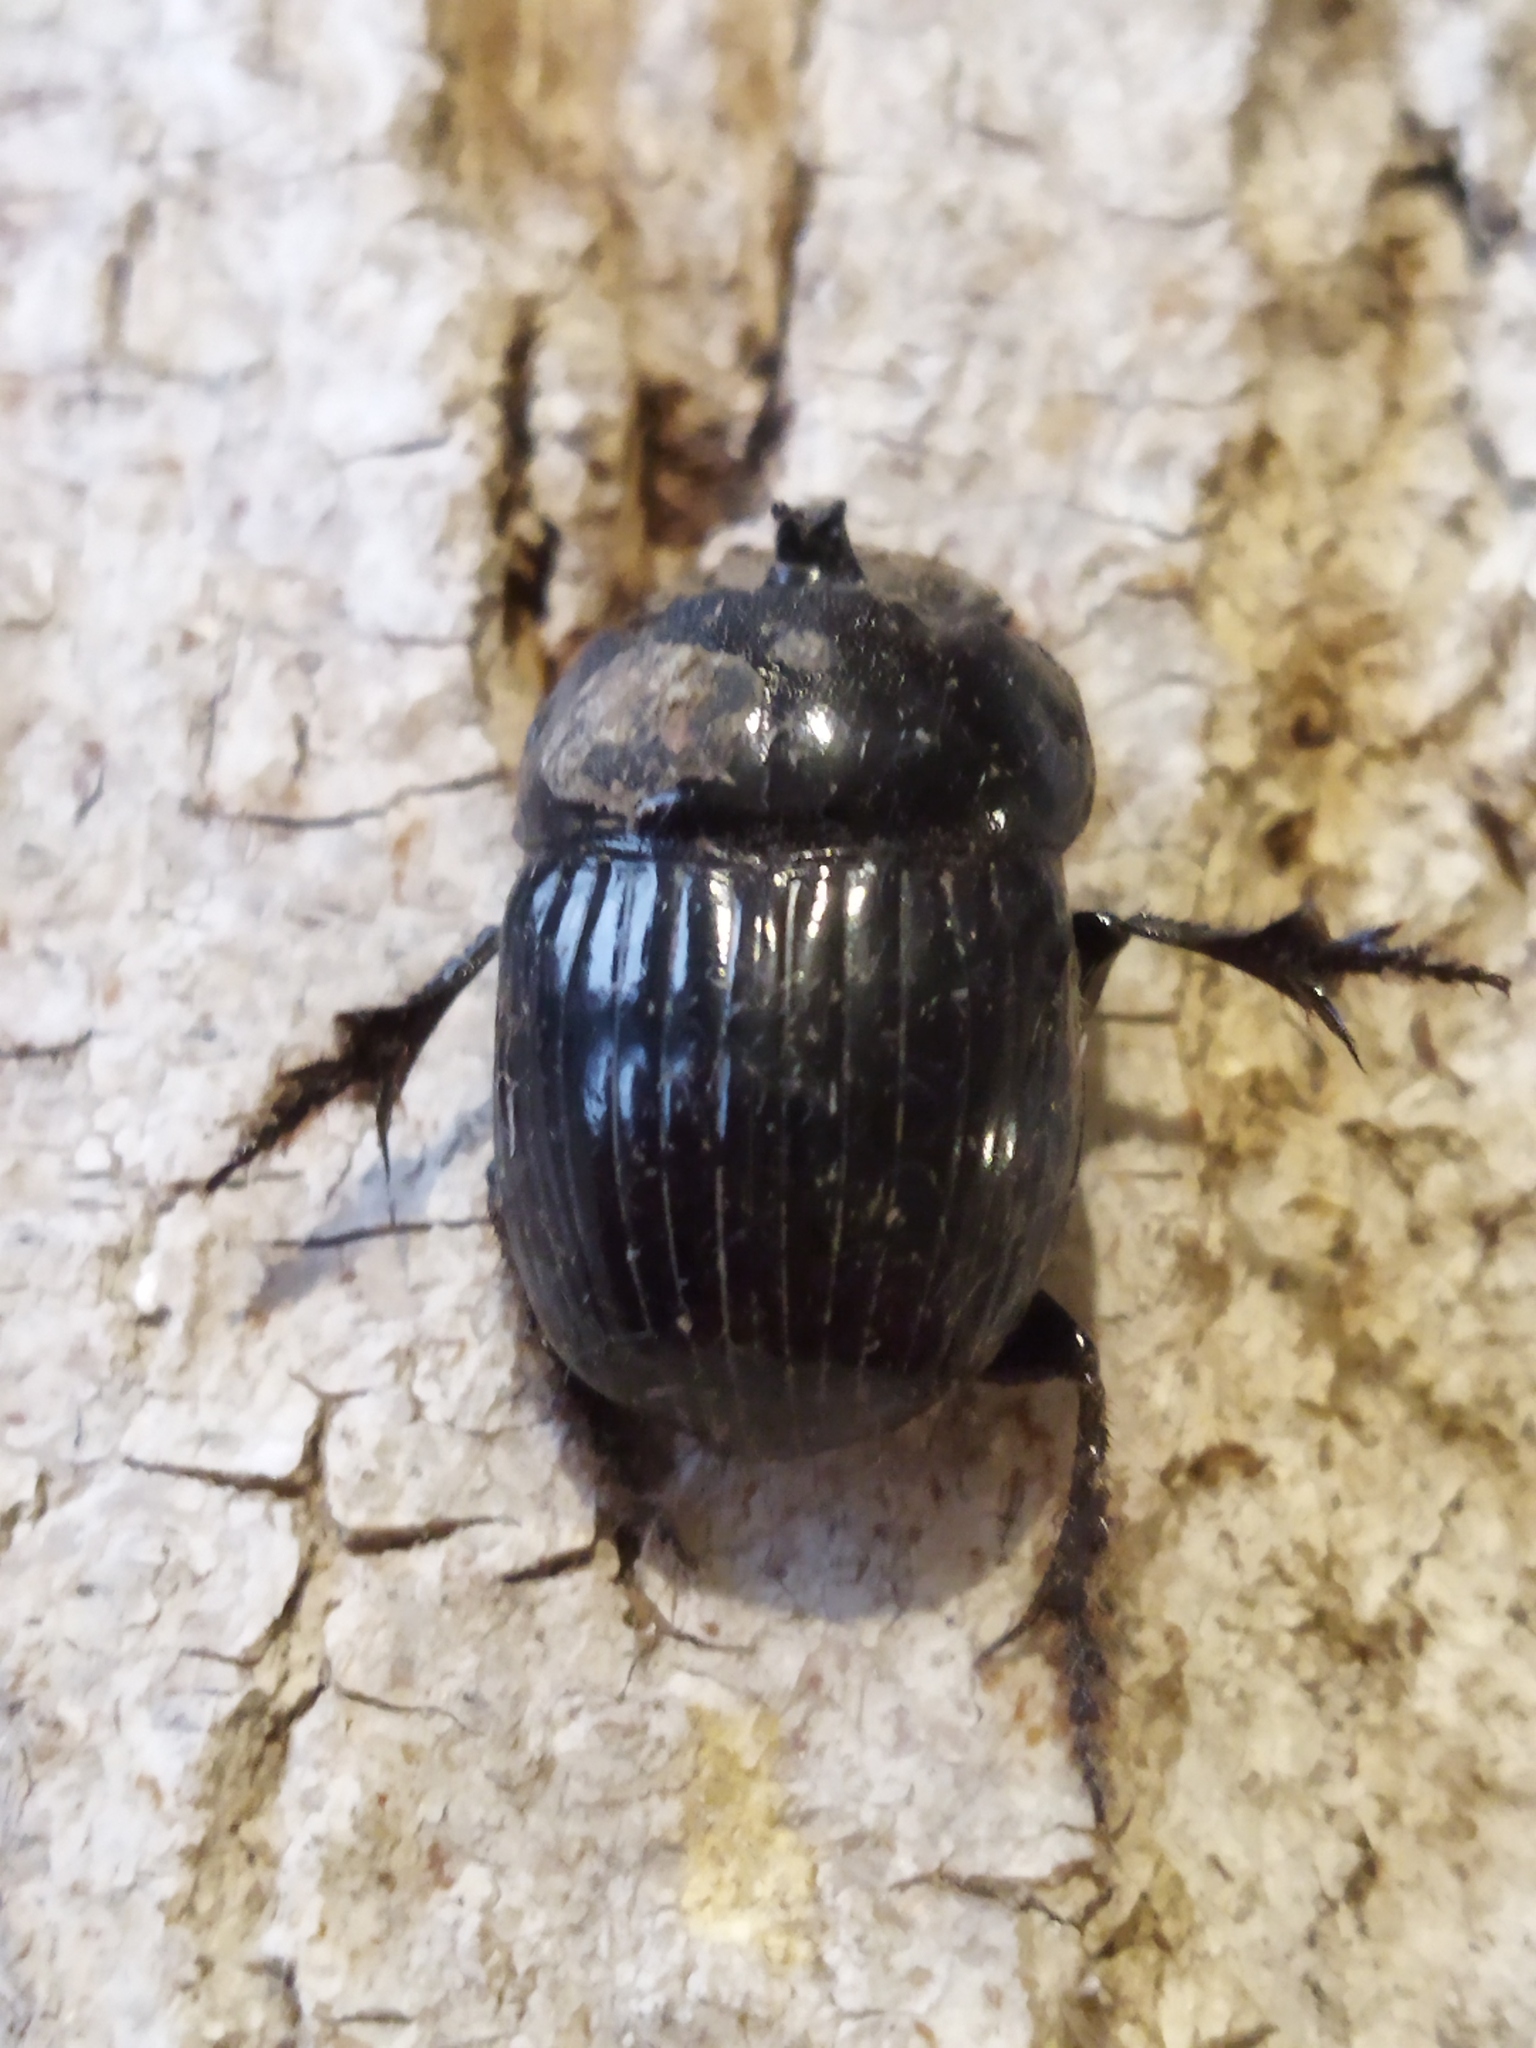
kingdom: Animalia
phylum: Arthropoda
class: Insecta
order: Coleoptera
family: Scarabaeidae
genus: Copris
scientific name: Copris lunaris
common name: Horned dung beetle
